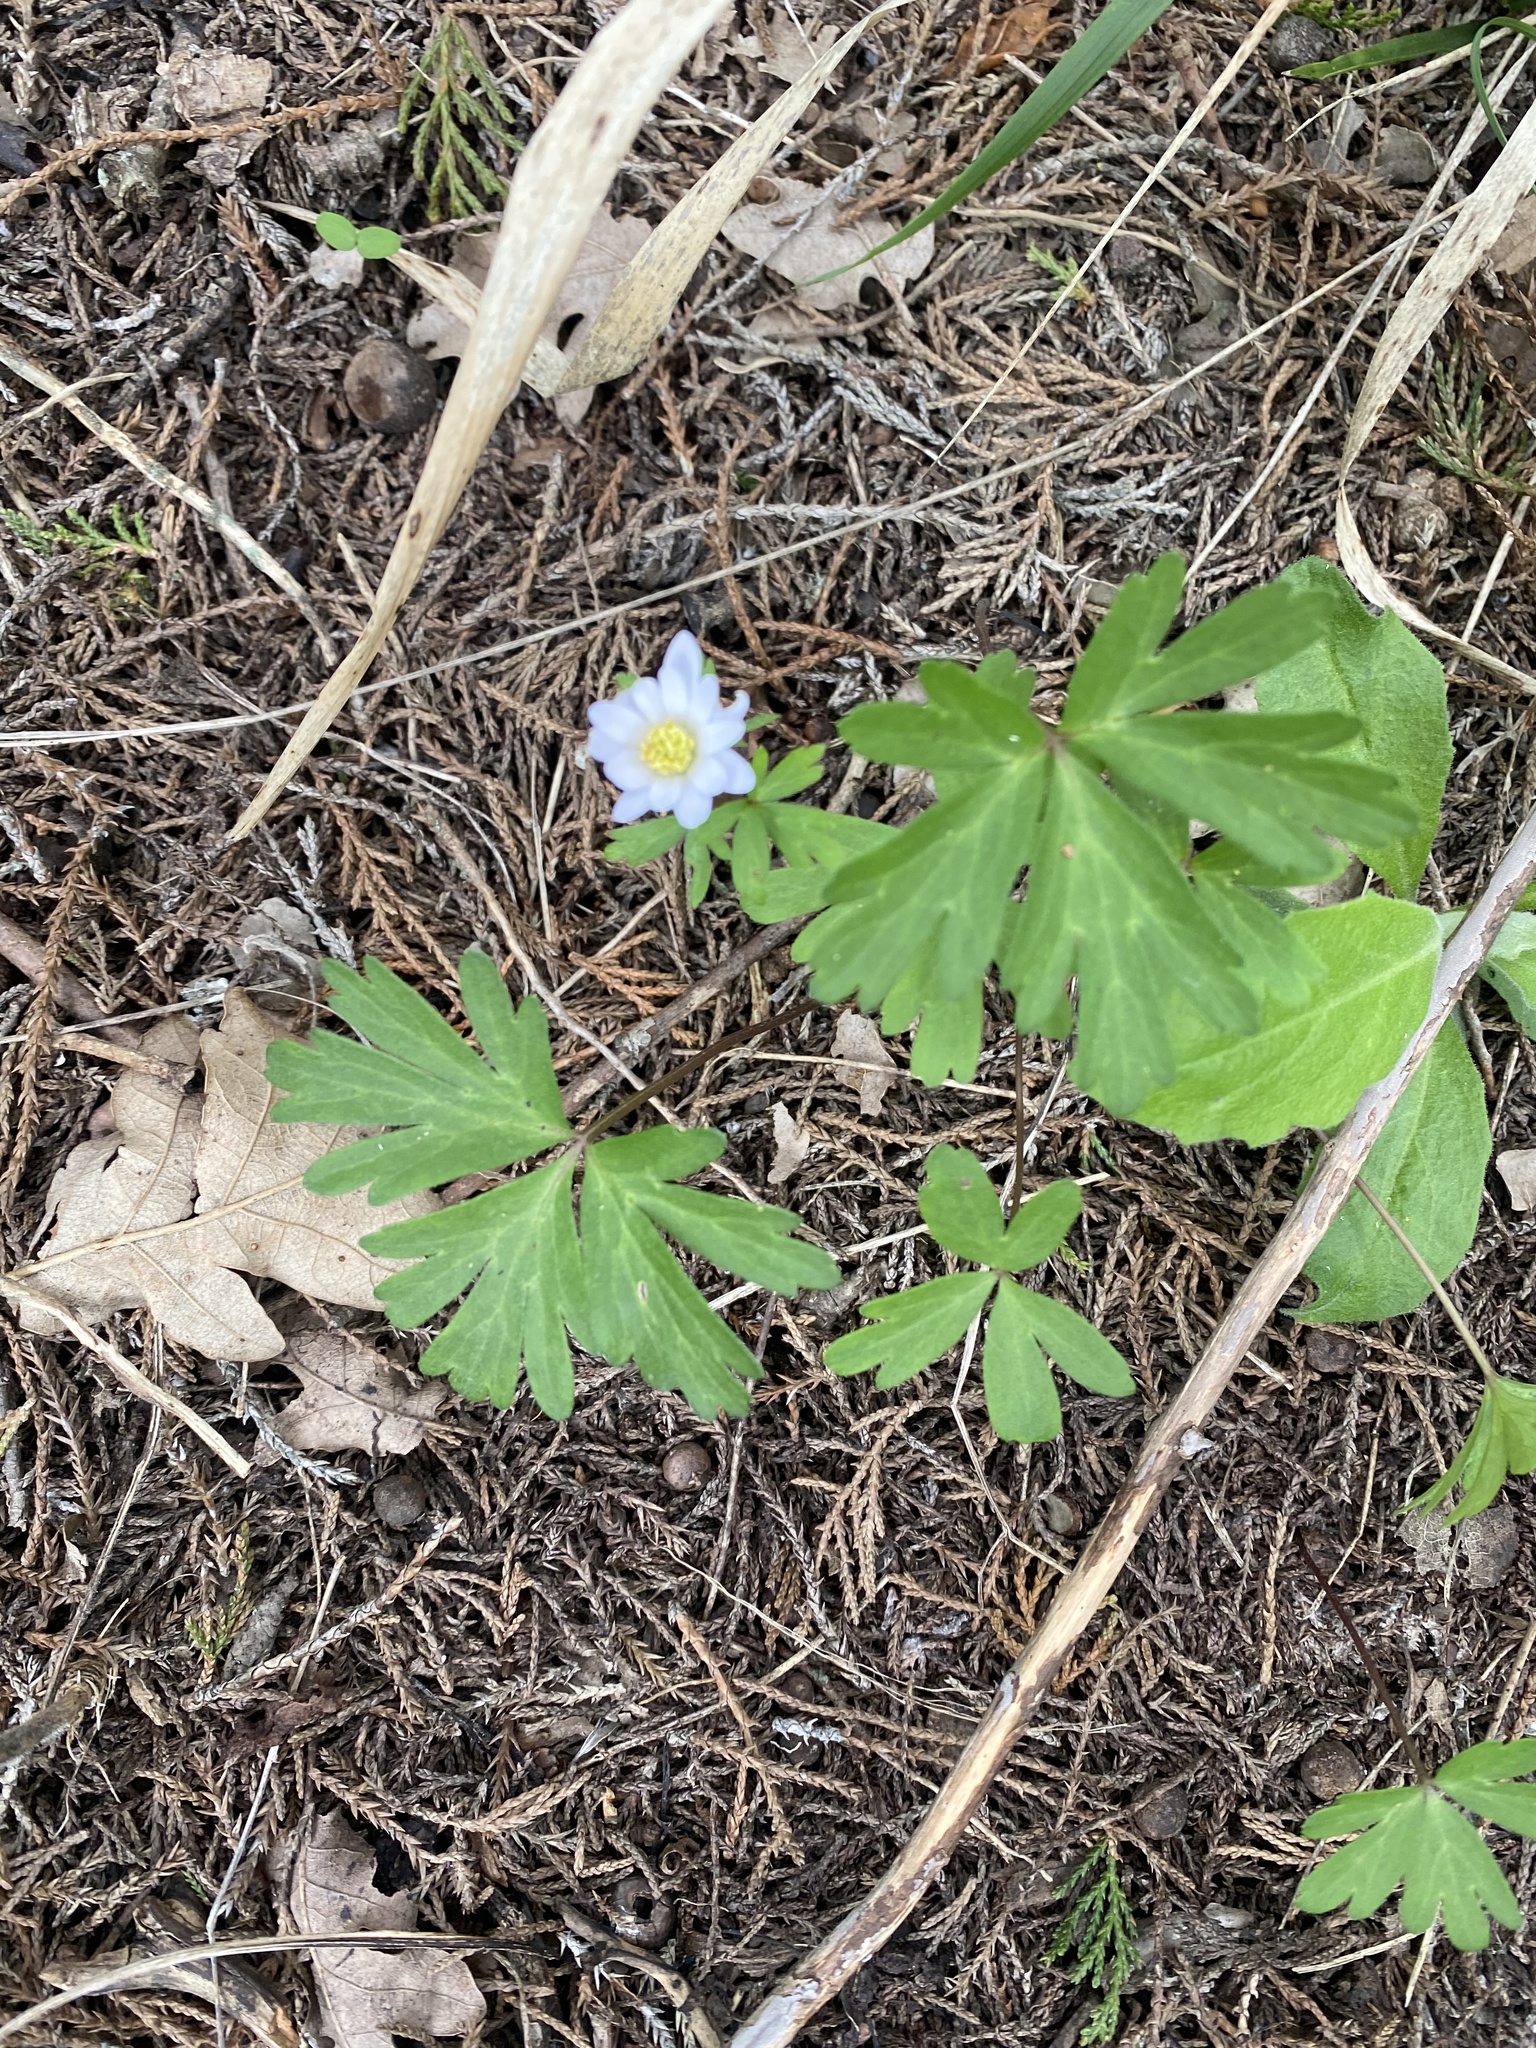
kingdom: Plantae
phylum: Tracheophyta
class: Magnoliopsida
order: Ranunculales
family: Ranunculaceae
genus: Anemone
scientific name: Anemone blanda
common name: Balkan anemone
